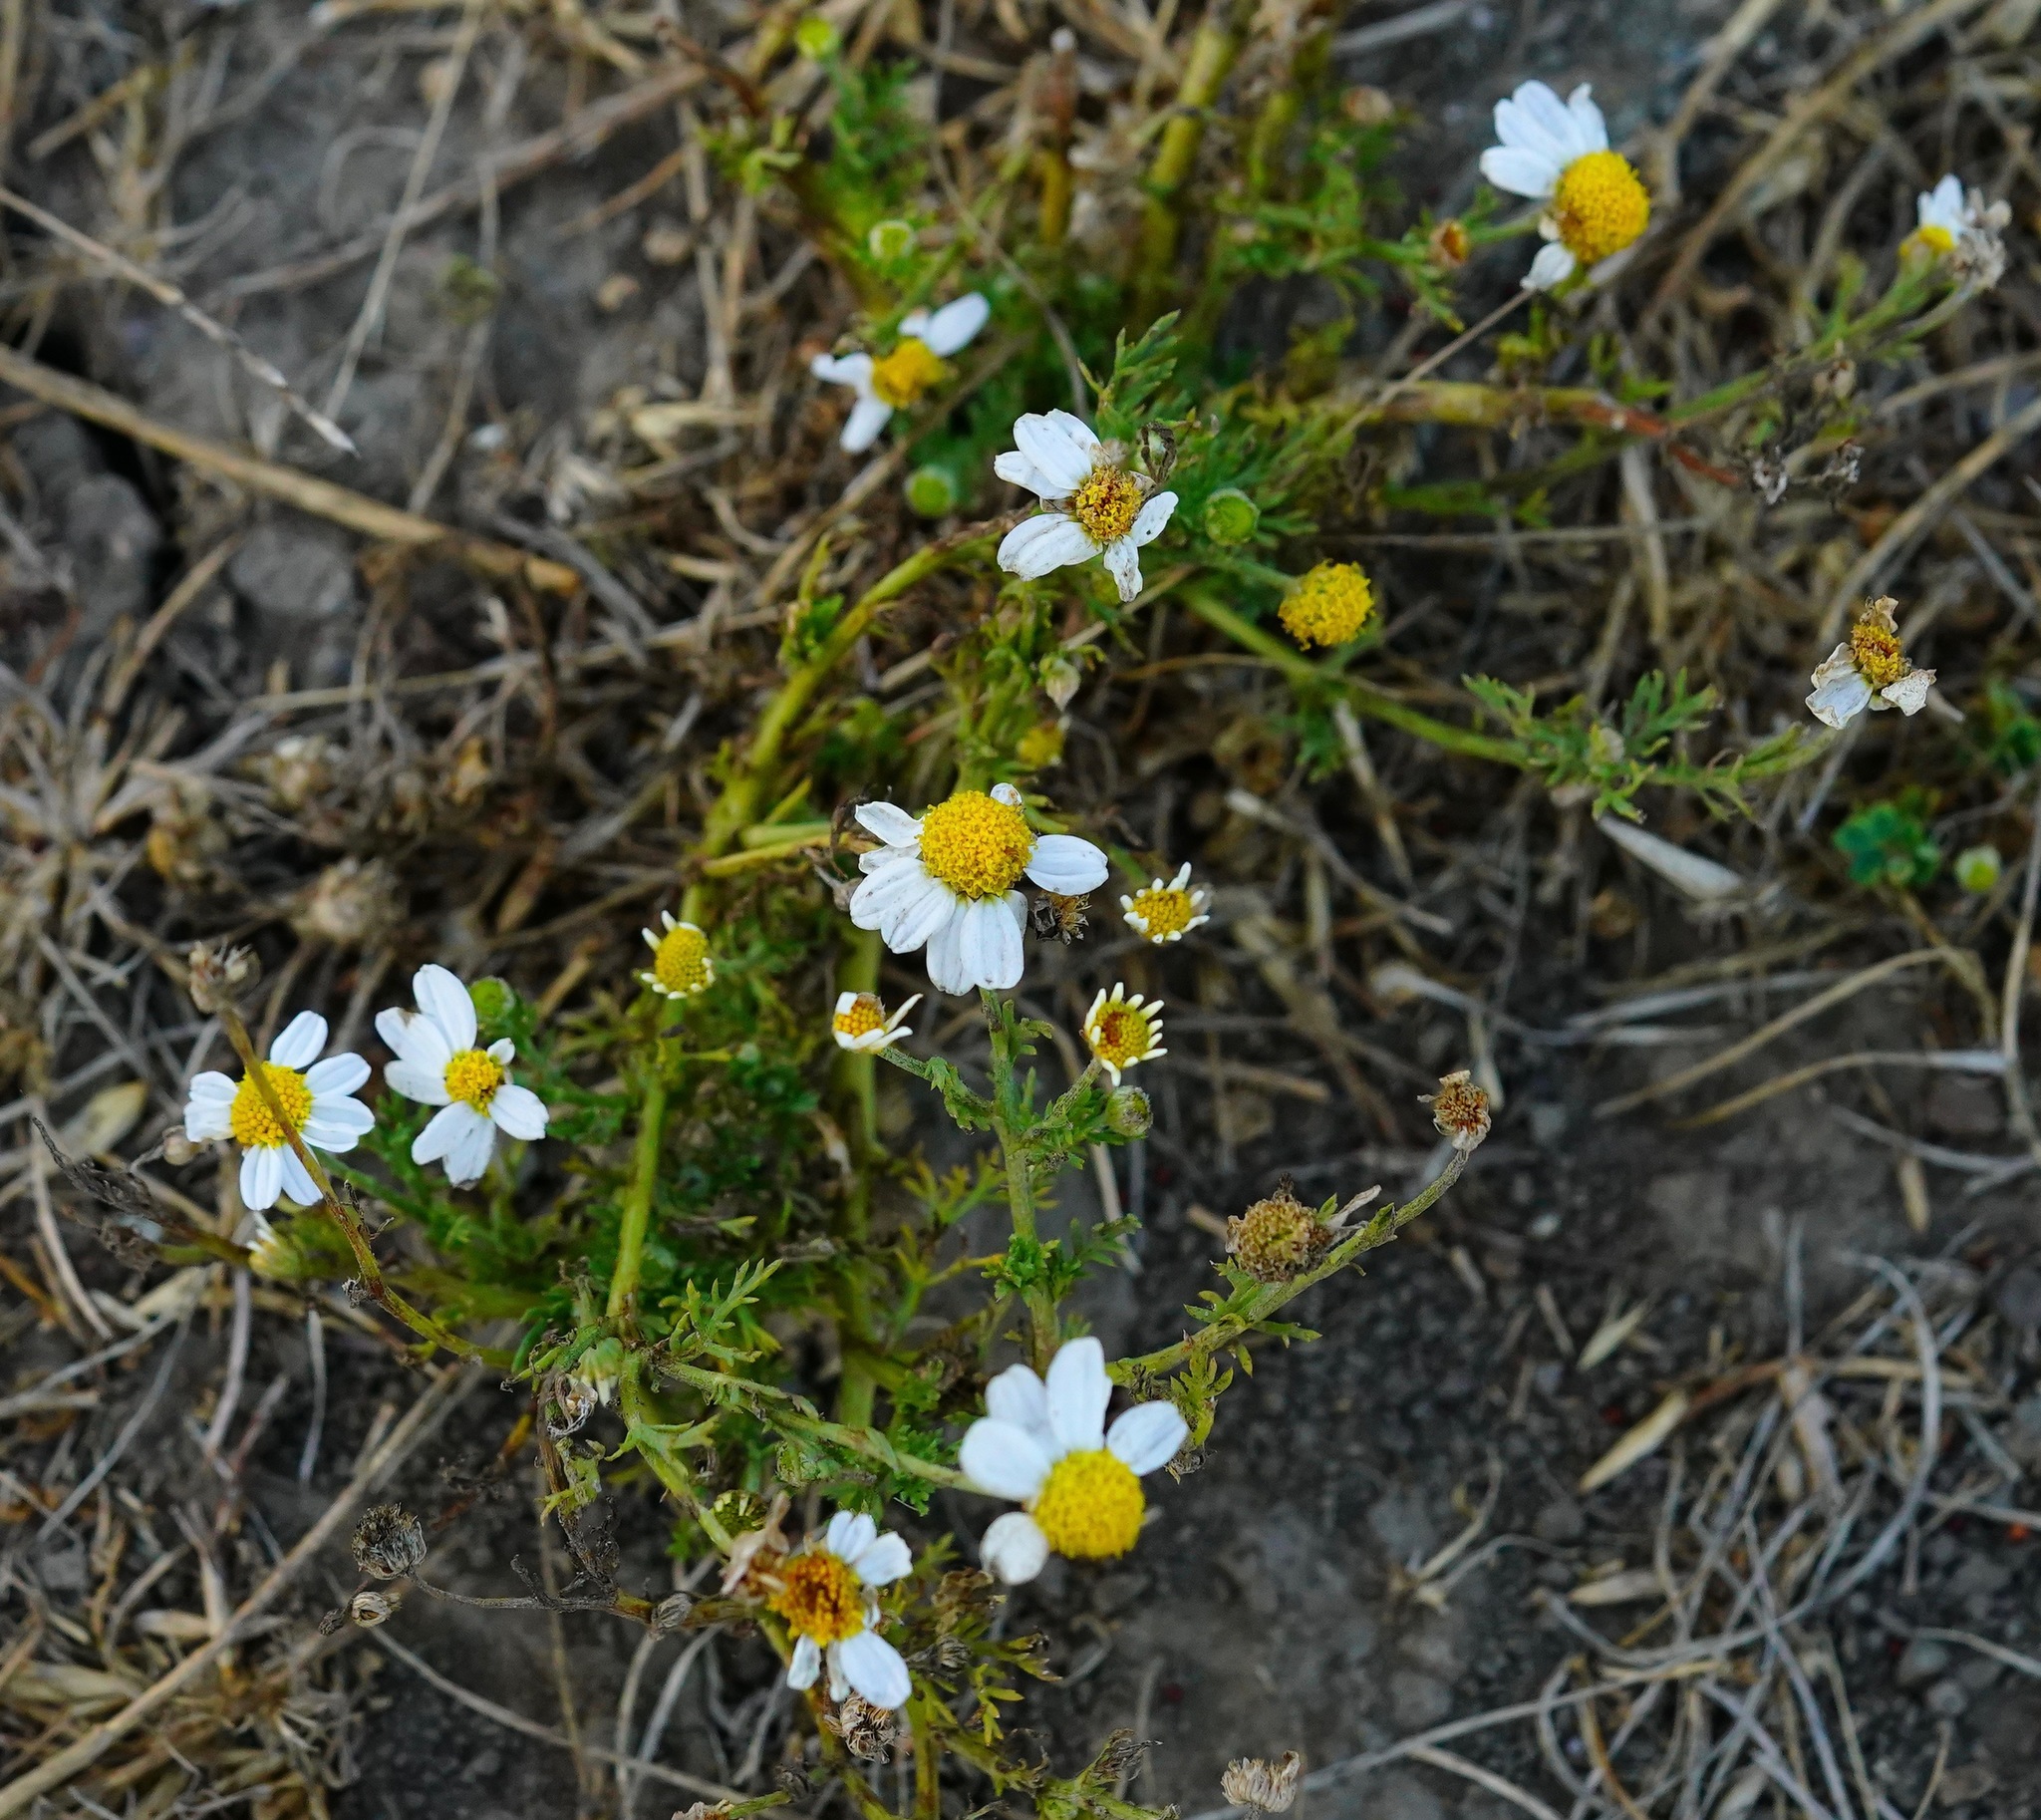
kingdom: Plantae
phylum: Tracheophyta
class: Magnoliopsida
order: Asterales
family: Asteraceae
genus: Anthemis
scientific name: Anthemis cotula
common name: Stinking chamomile
